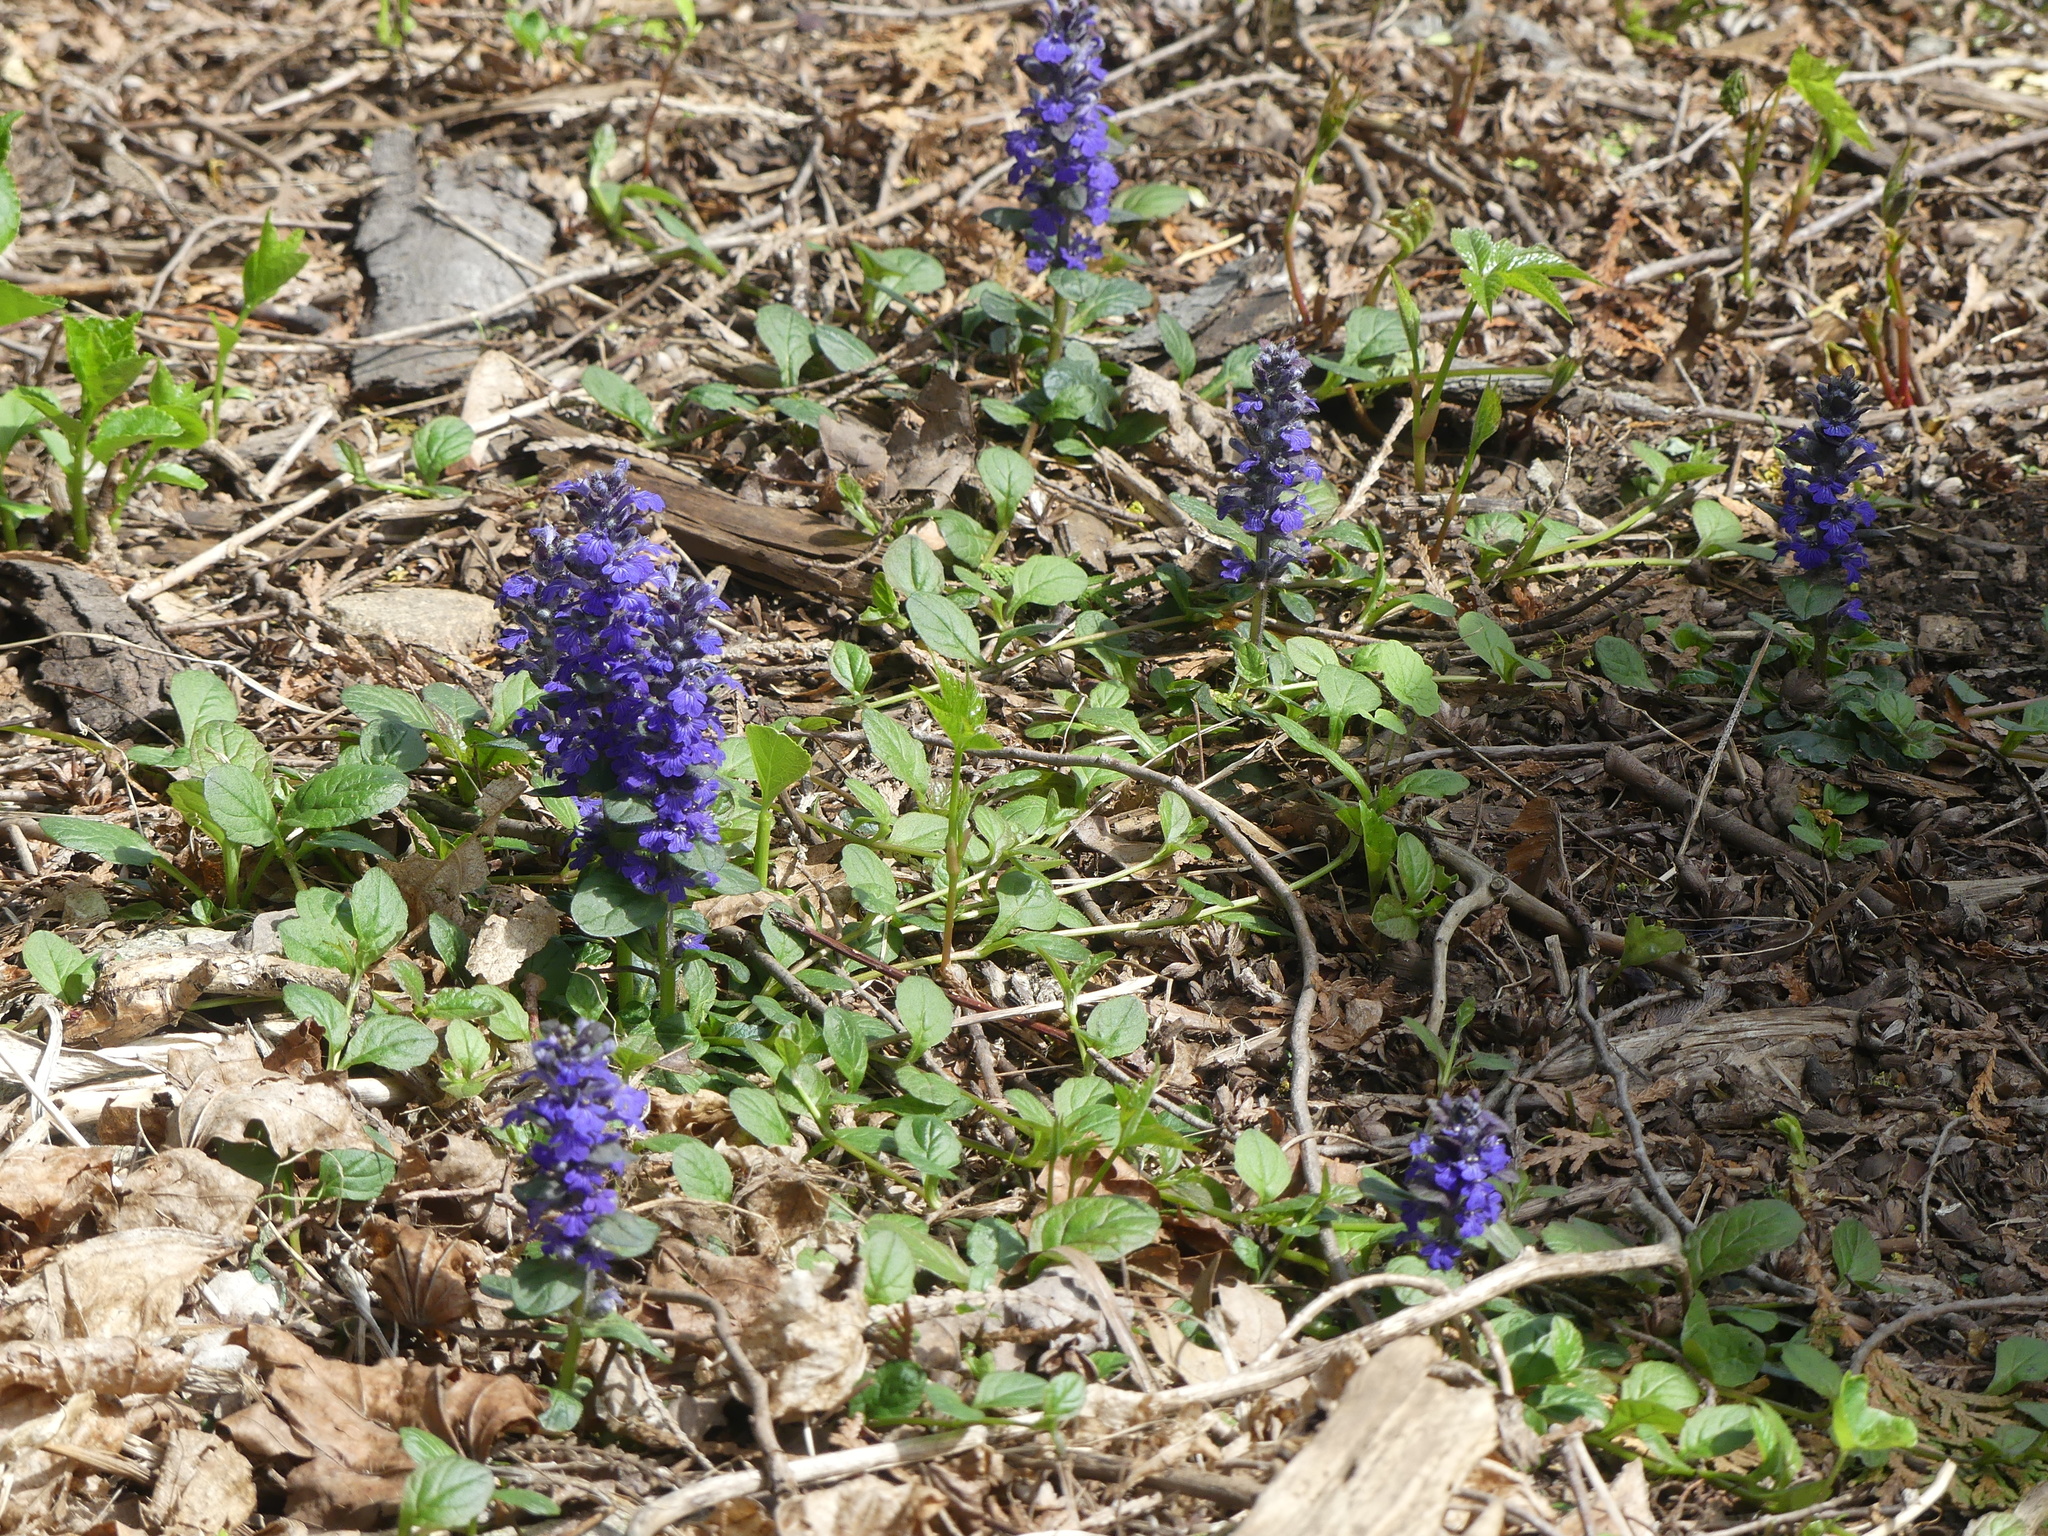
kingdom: Plantae
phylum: Tracheophyta
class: Magnoliopsida
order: Lamiales
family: Lamiaceae
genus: Ajuga
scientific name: Ajuga reptans
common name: Bugle
